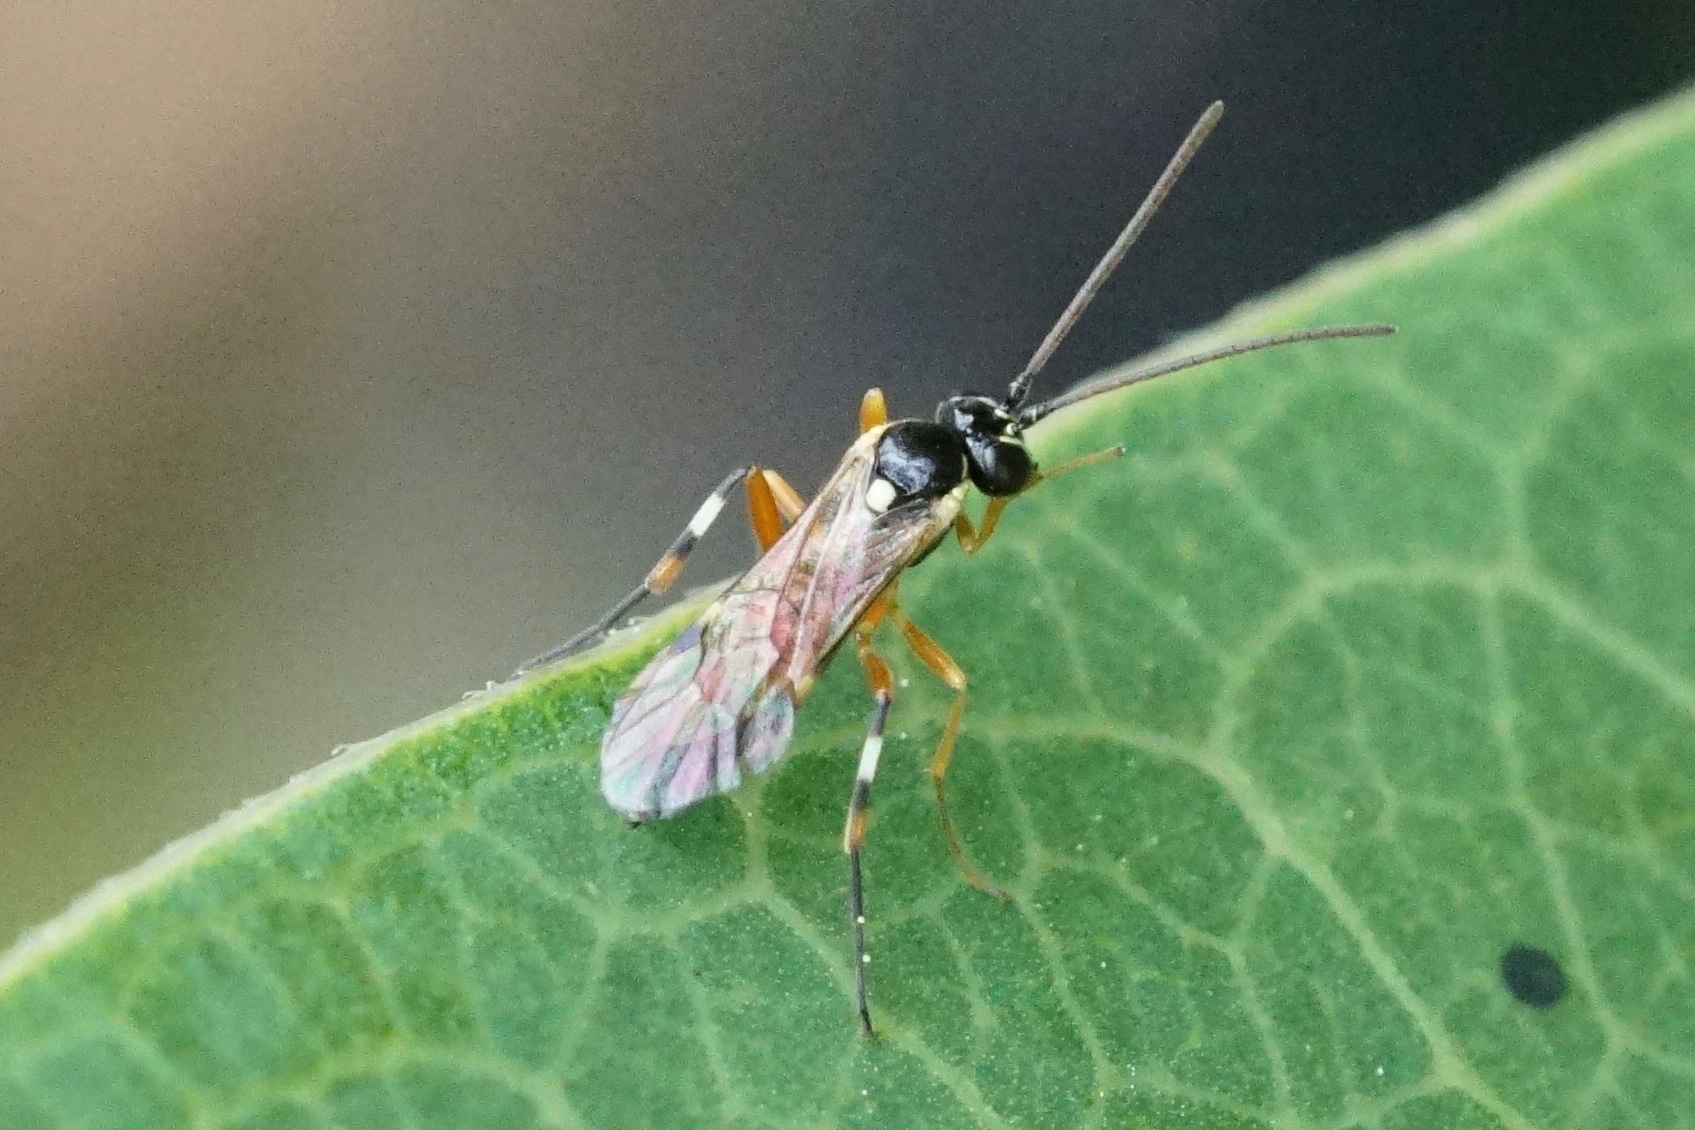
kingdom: Animalia
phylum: Arthropoda
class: Insecta
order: Hymenoptera
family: Ichneumonidae
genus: Diplazon
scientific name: Diplazon laetatorius
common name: Parasitoid wasp
